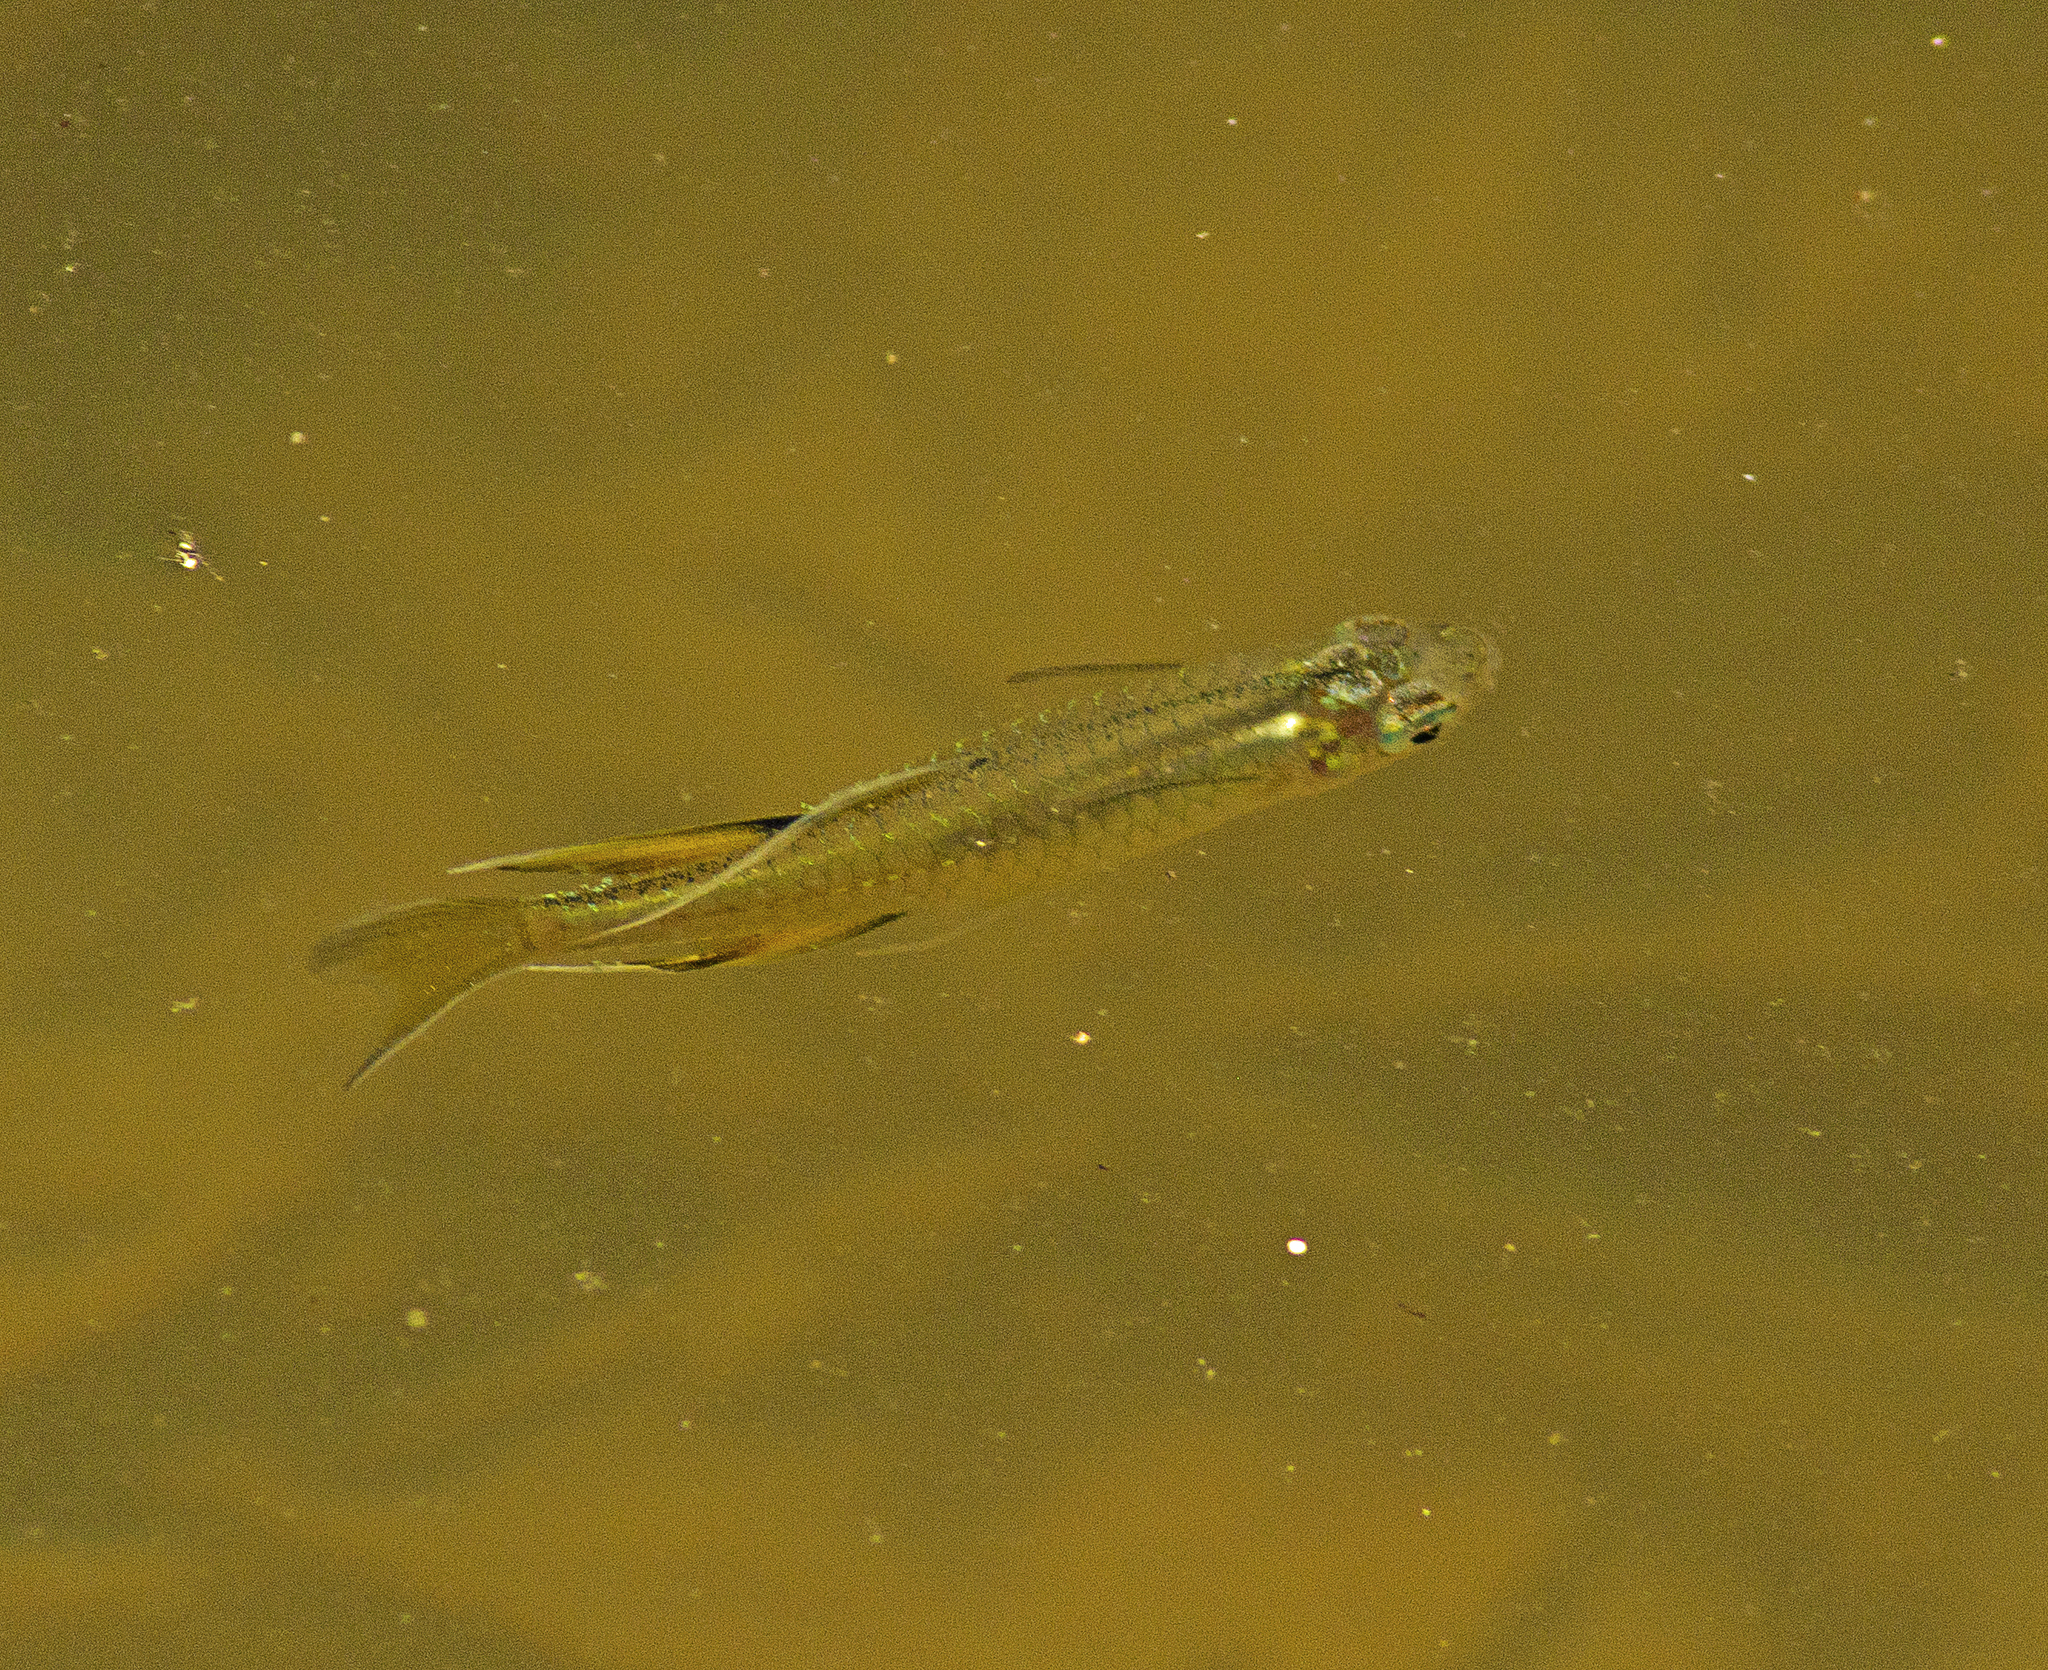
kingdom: Animalia
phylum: Chordata
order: Atheriniformes
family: Pseudomugilidae
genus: Pseudomugil
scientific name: Pseudomugil signifer
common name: Blue eye
